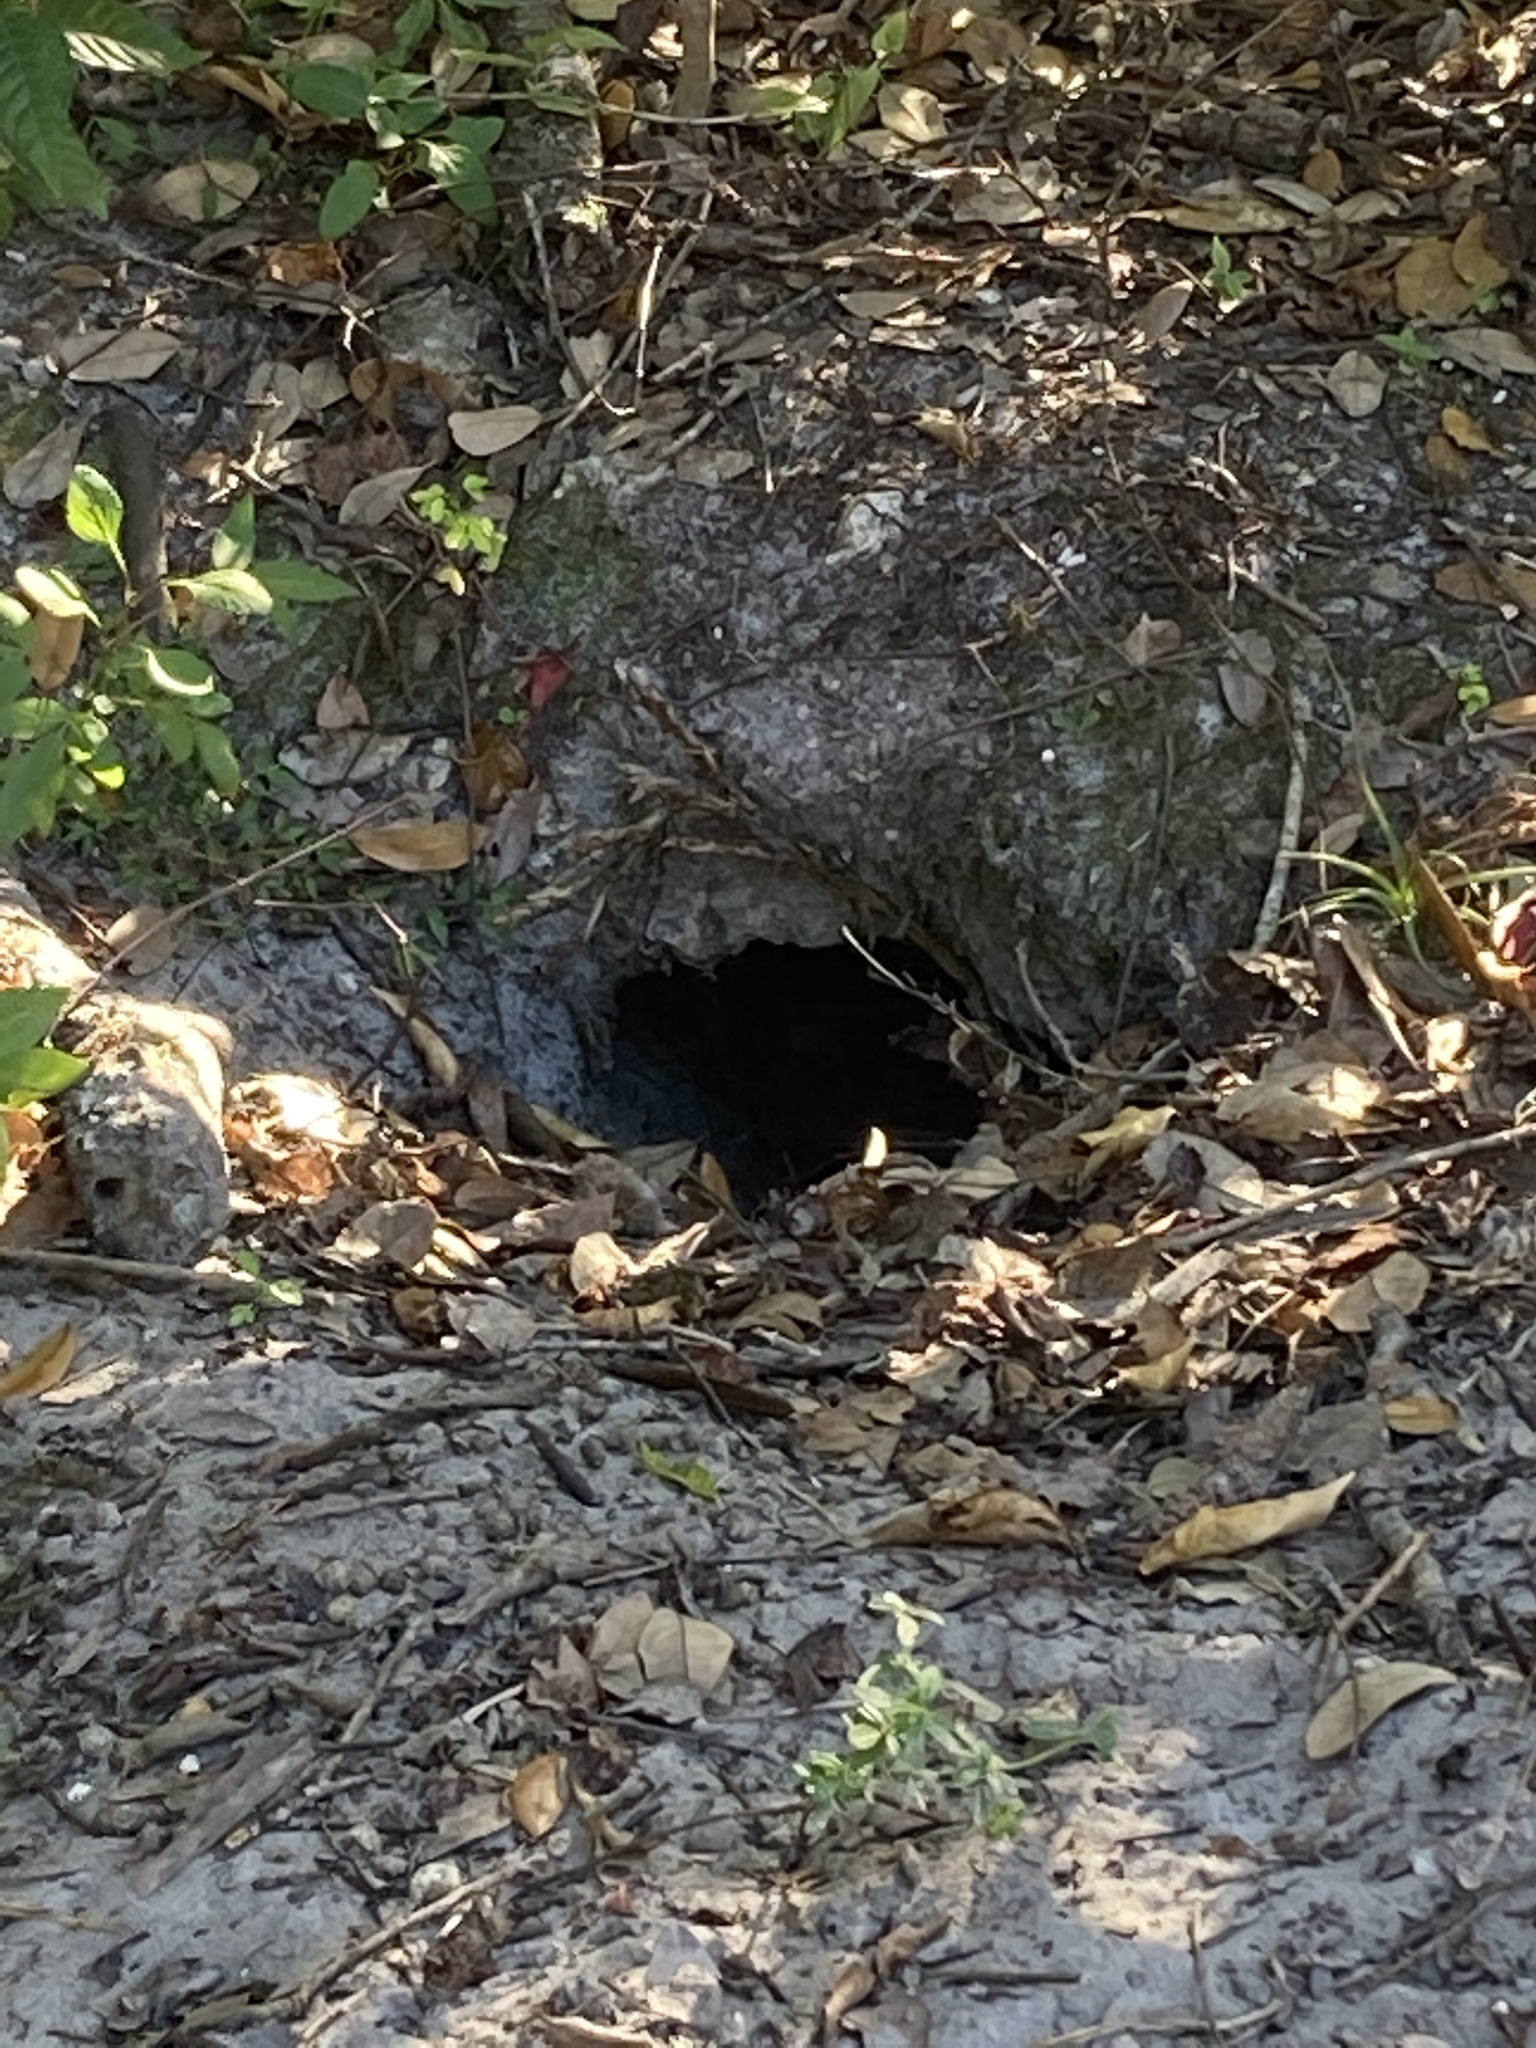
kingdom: Animalia
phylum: Chordata
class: Testudines
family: Testudinidae
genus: Gopherus
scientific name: Gopherus polyphemus
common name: Florida gopher tortoise
